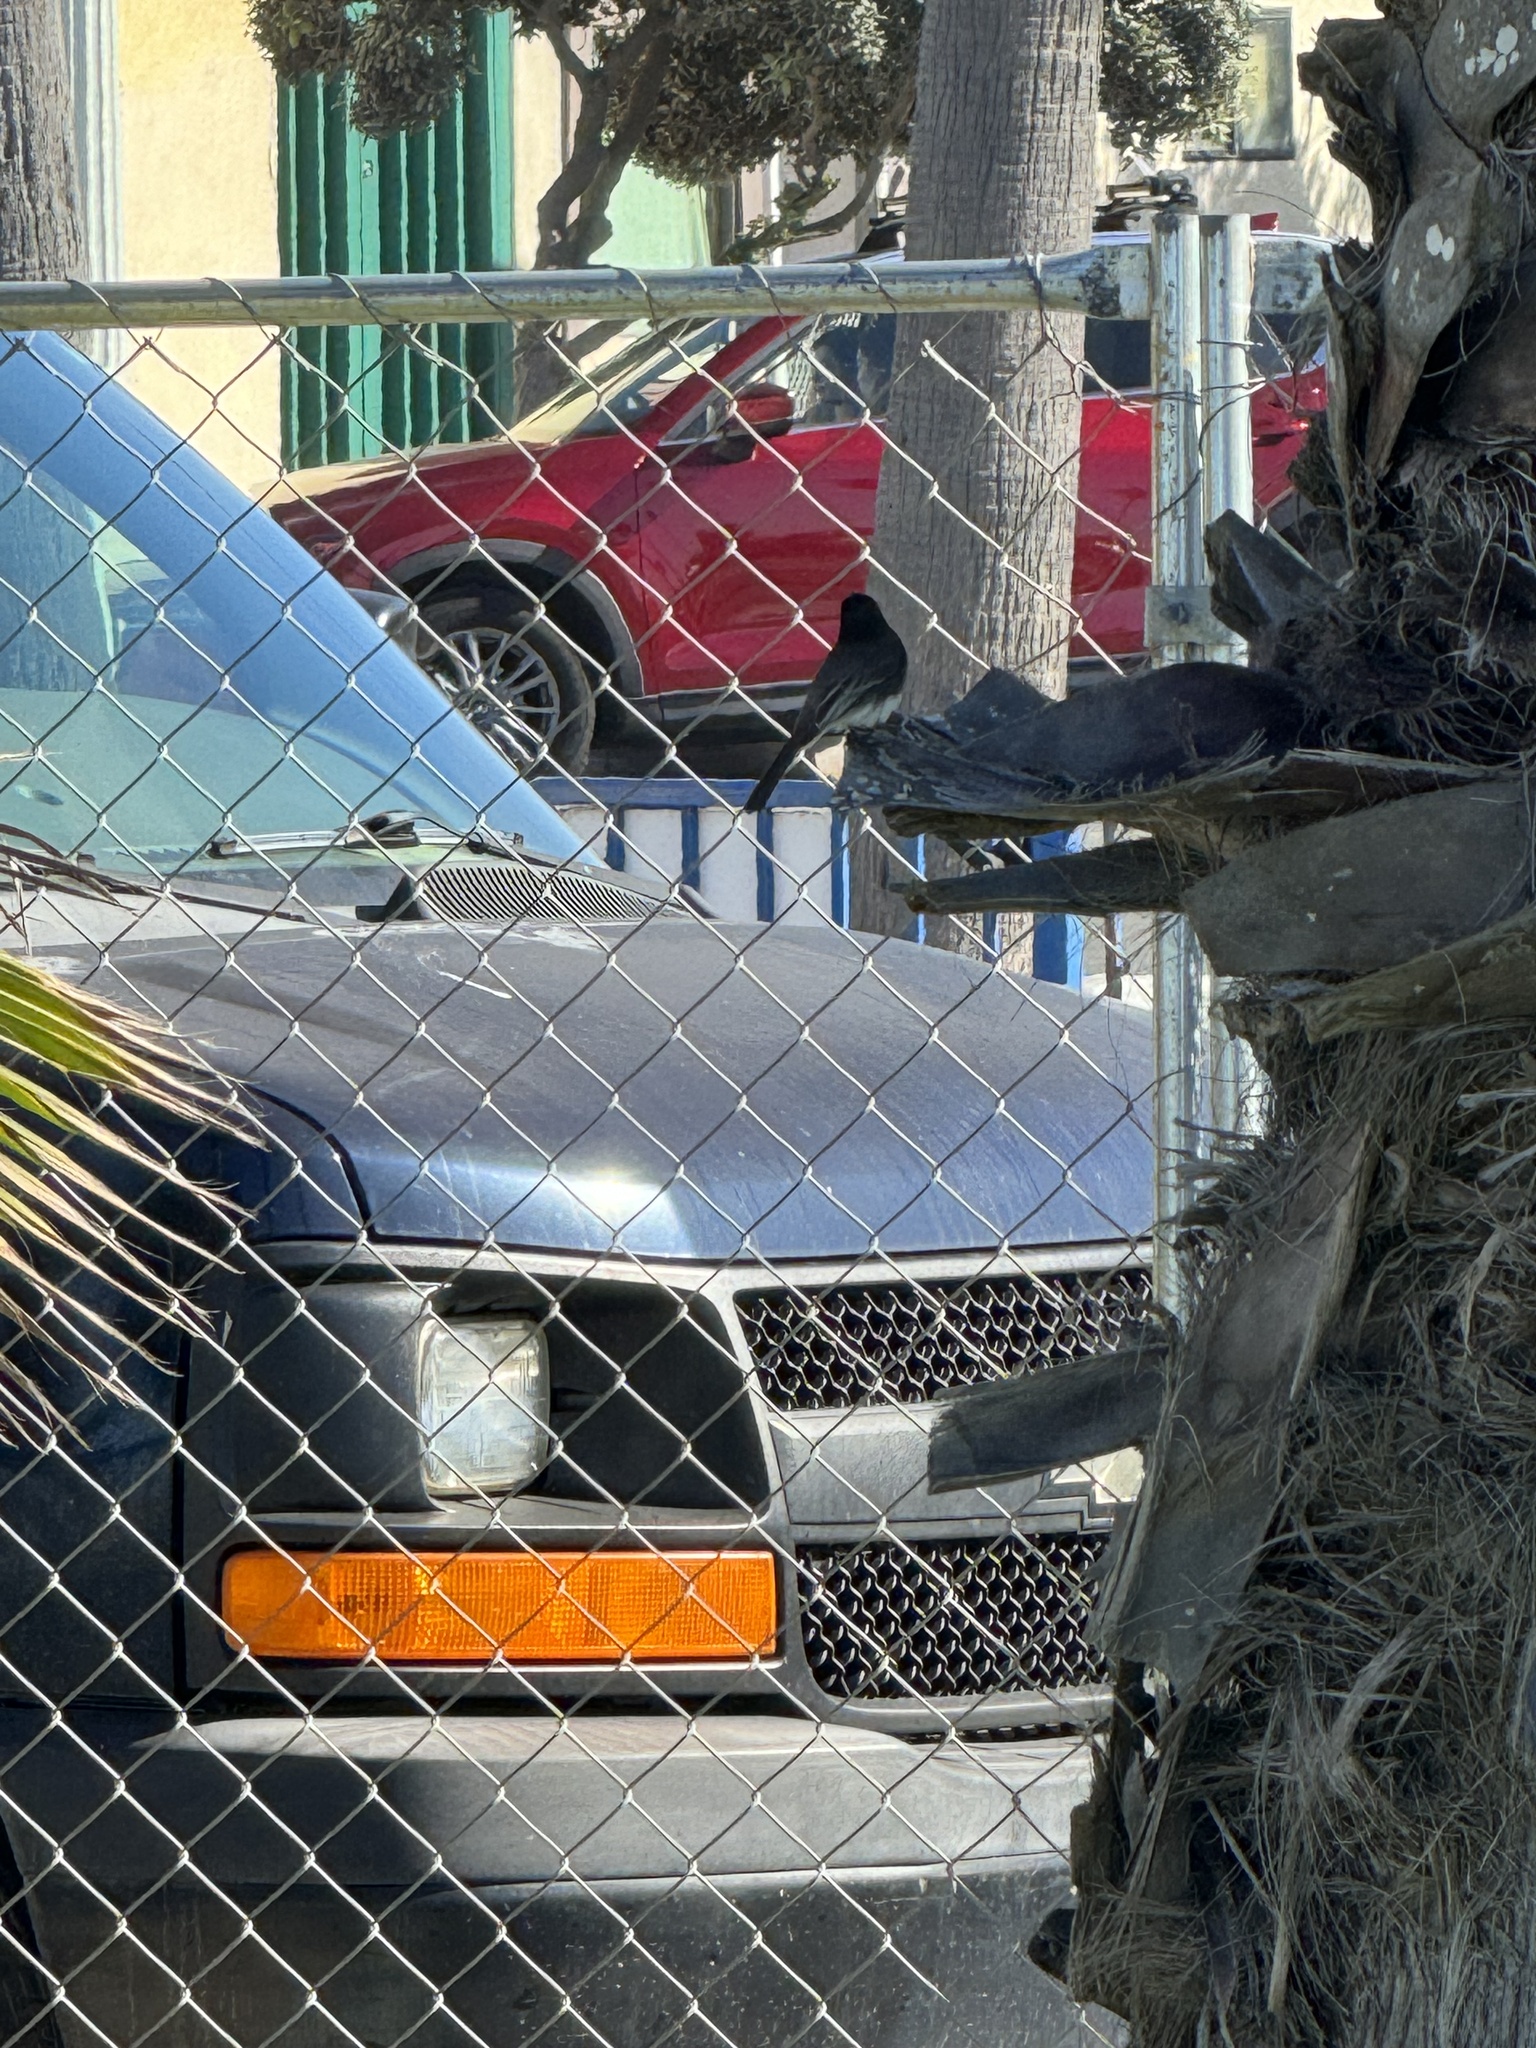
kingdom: Animalia
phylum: Chordata
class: Aves
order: Passeriformes
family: Tyrannidae
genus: Sayornis
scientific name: Sayornis nigricans
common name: Black phoebe
